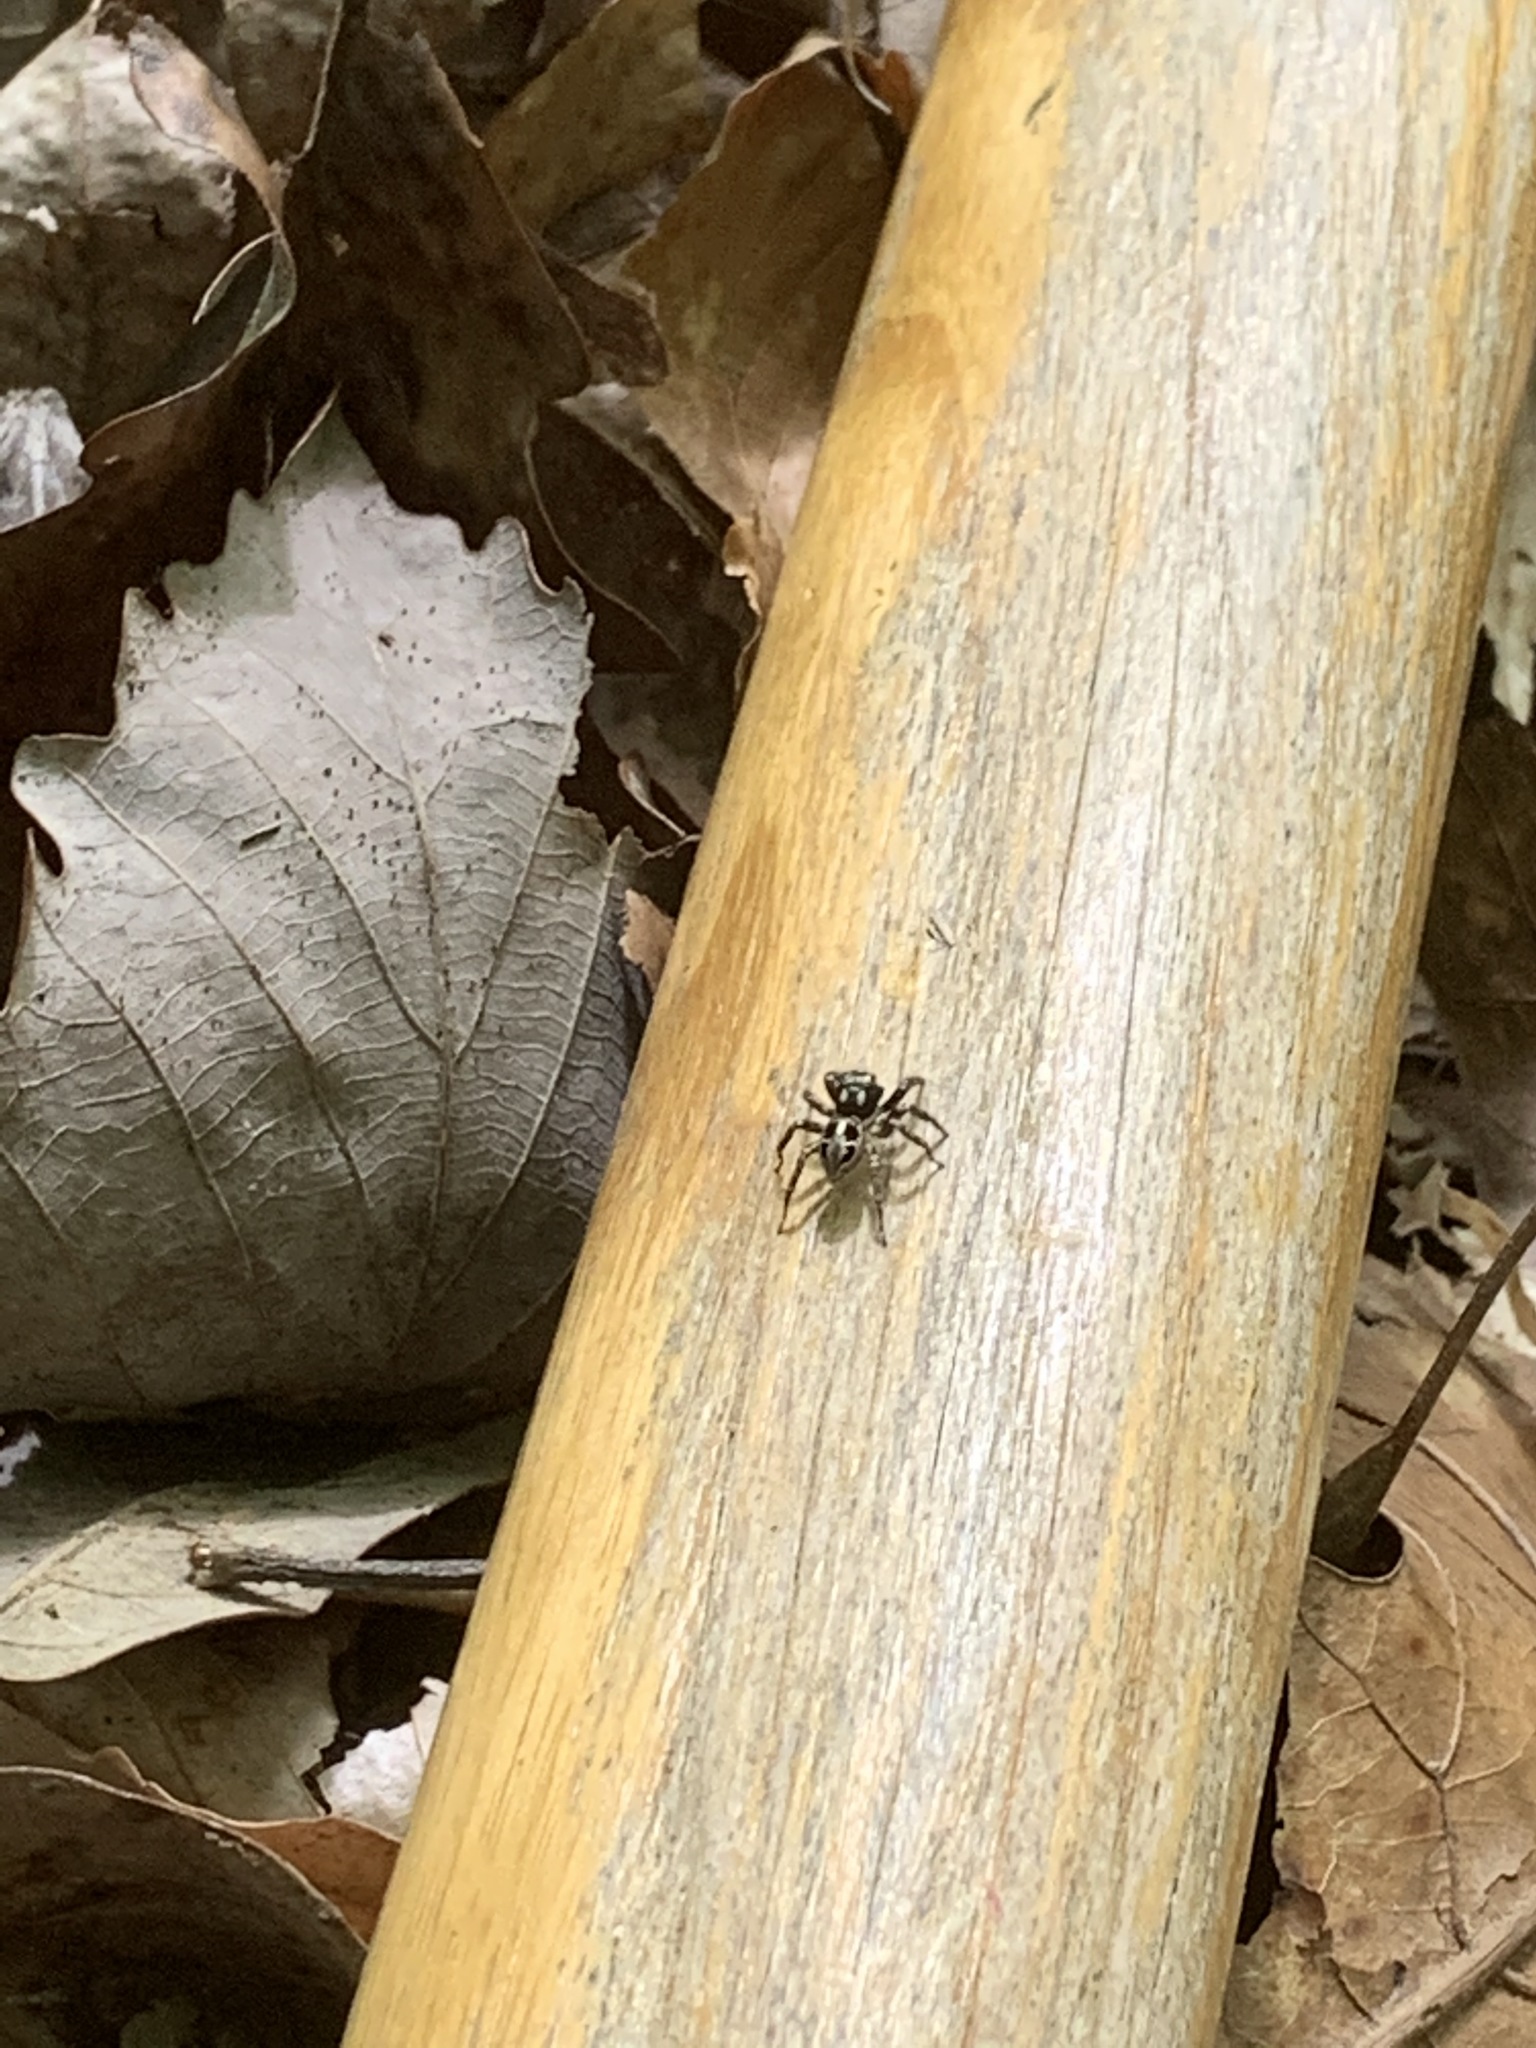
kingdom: Animalia
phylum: Arthropoda
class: Arachnida
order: Araneae
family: Salticidae
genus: Anasaitis
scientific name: Anasaitis canosa
